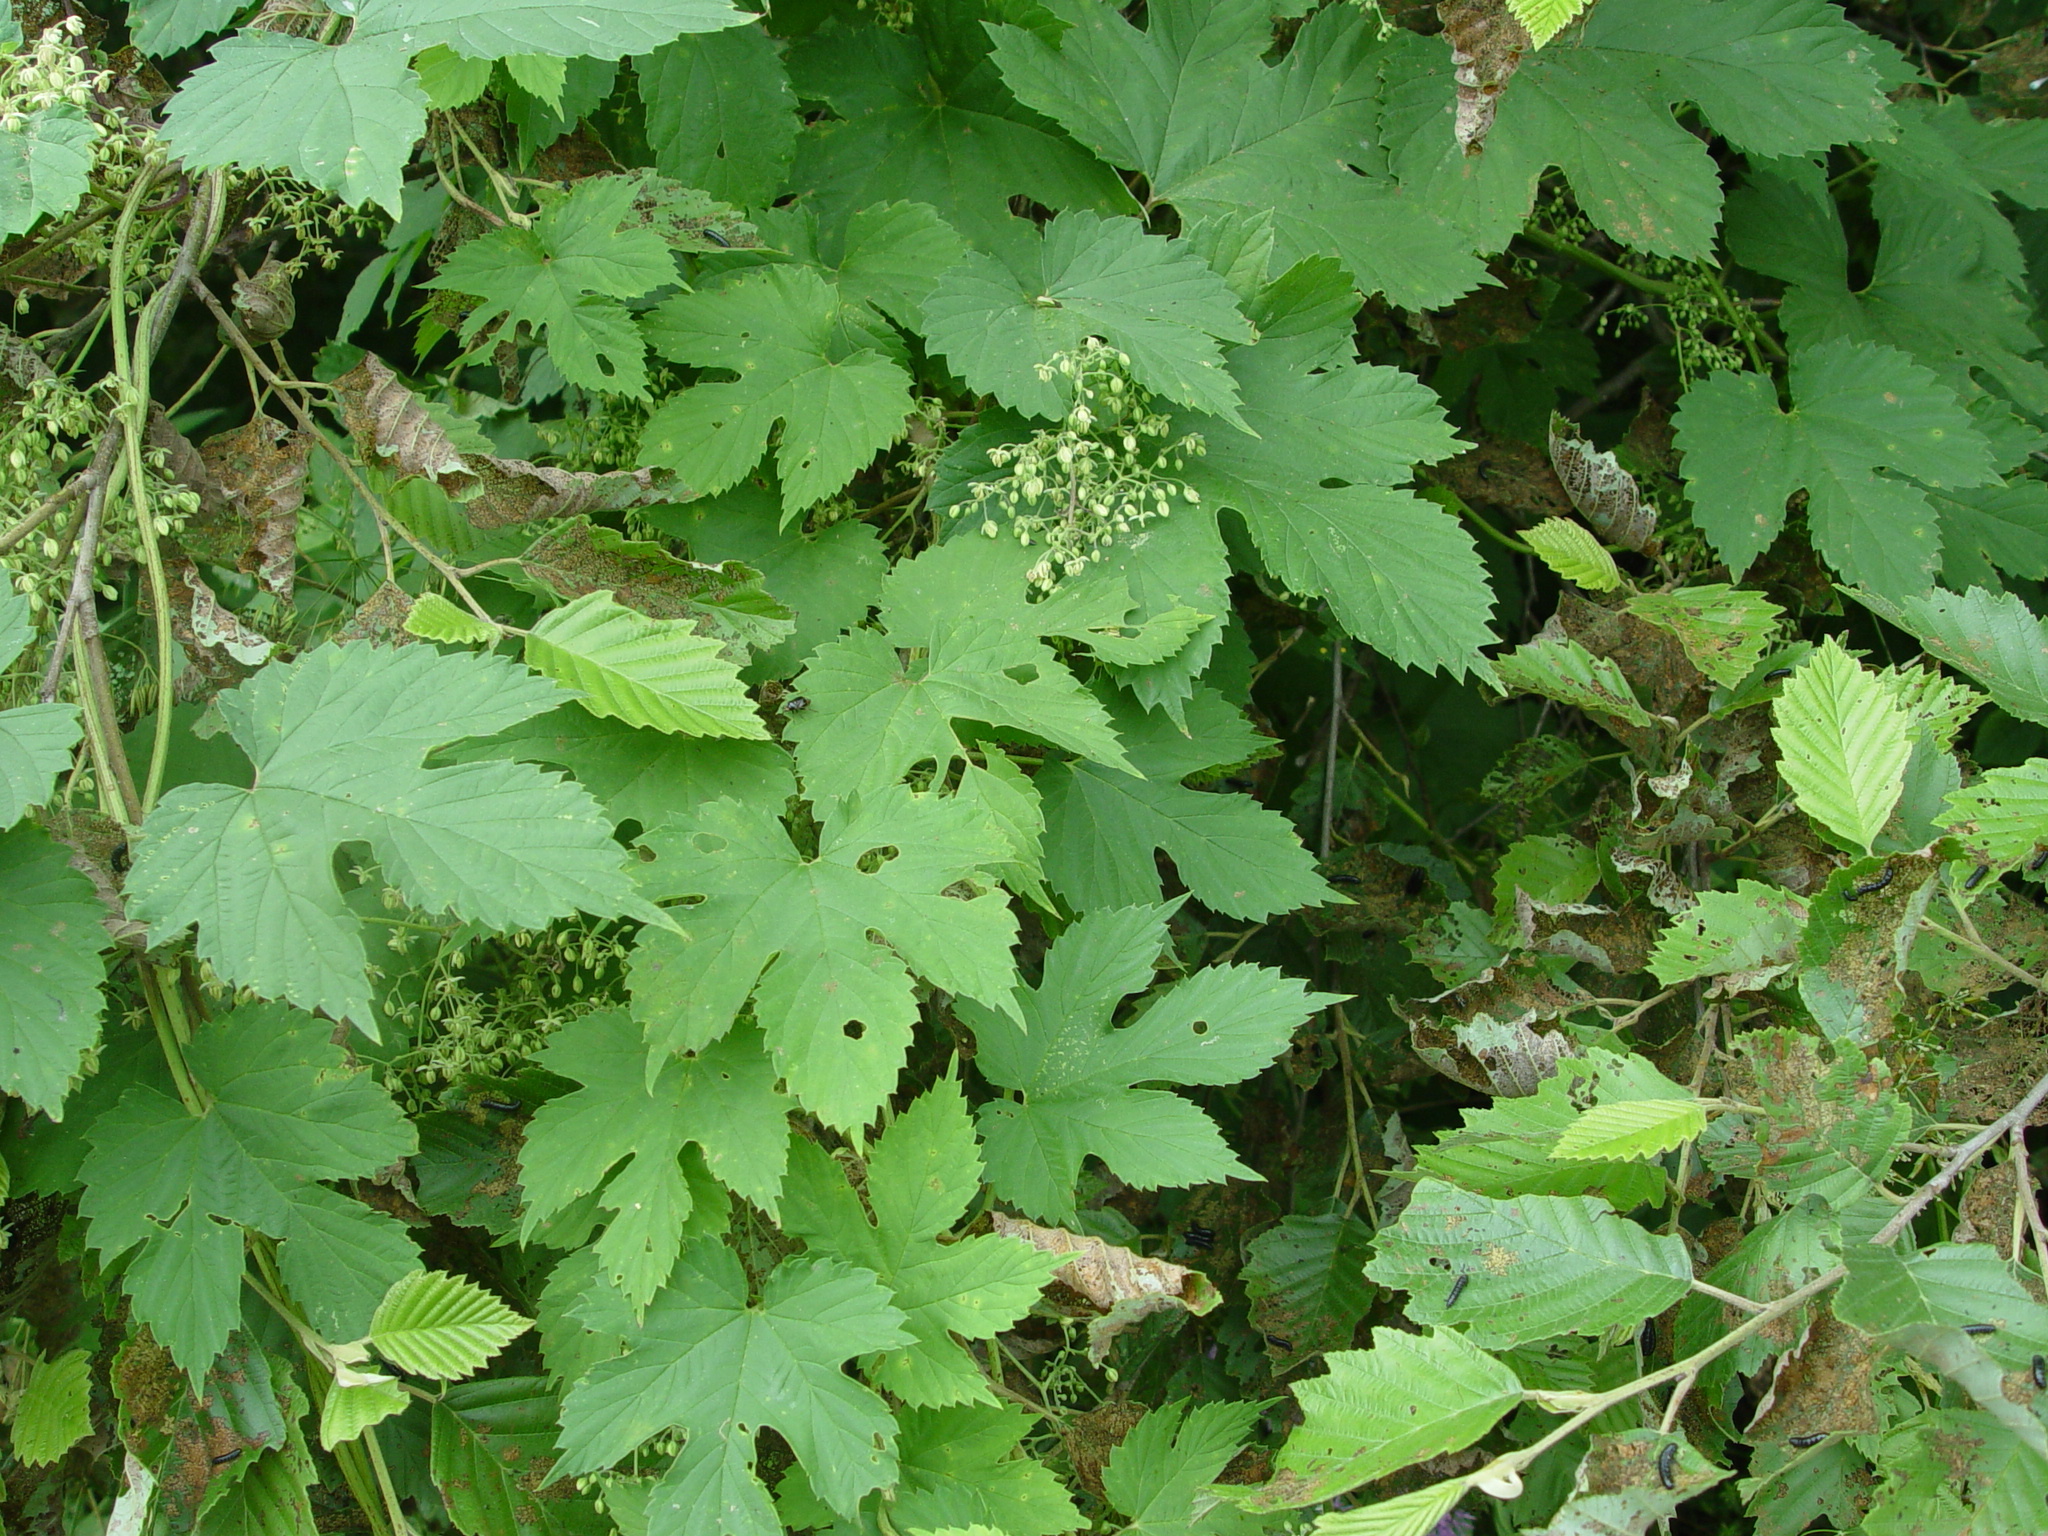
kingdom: Plantae
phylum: Tracheophyta
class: Magnoliopsida
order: Rosales
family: Cannabaceae
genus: Humulus
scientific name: Humulus lupulus
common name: Hop
